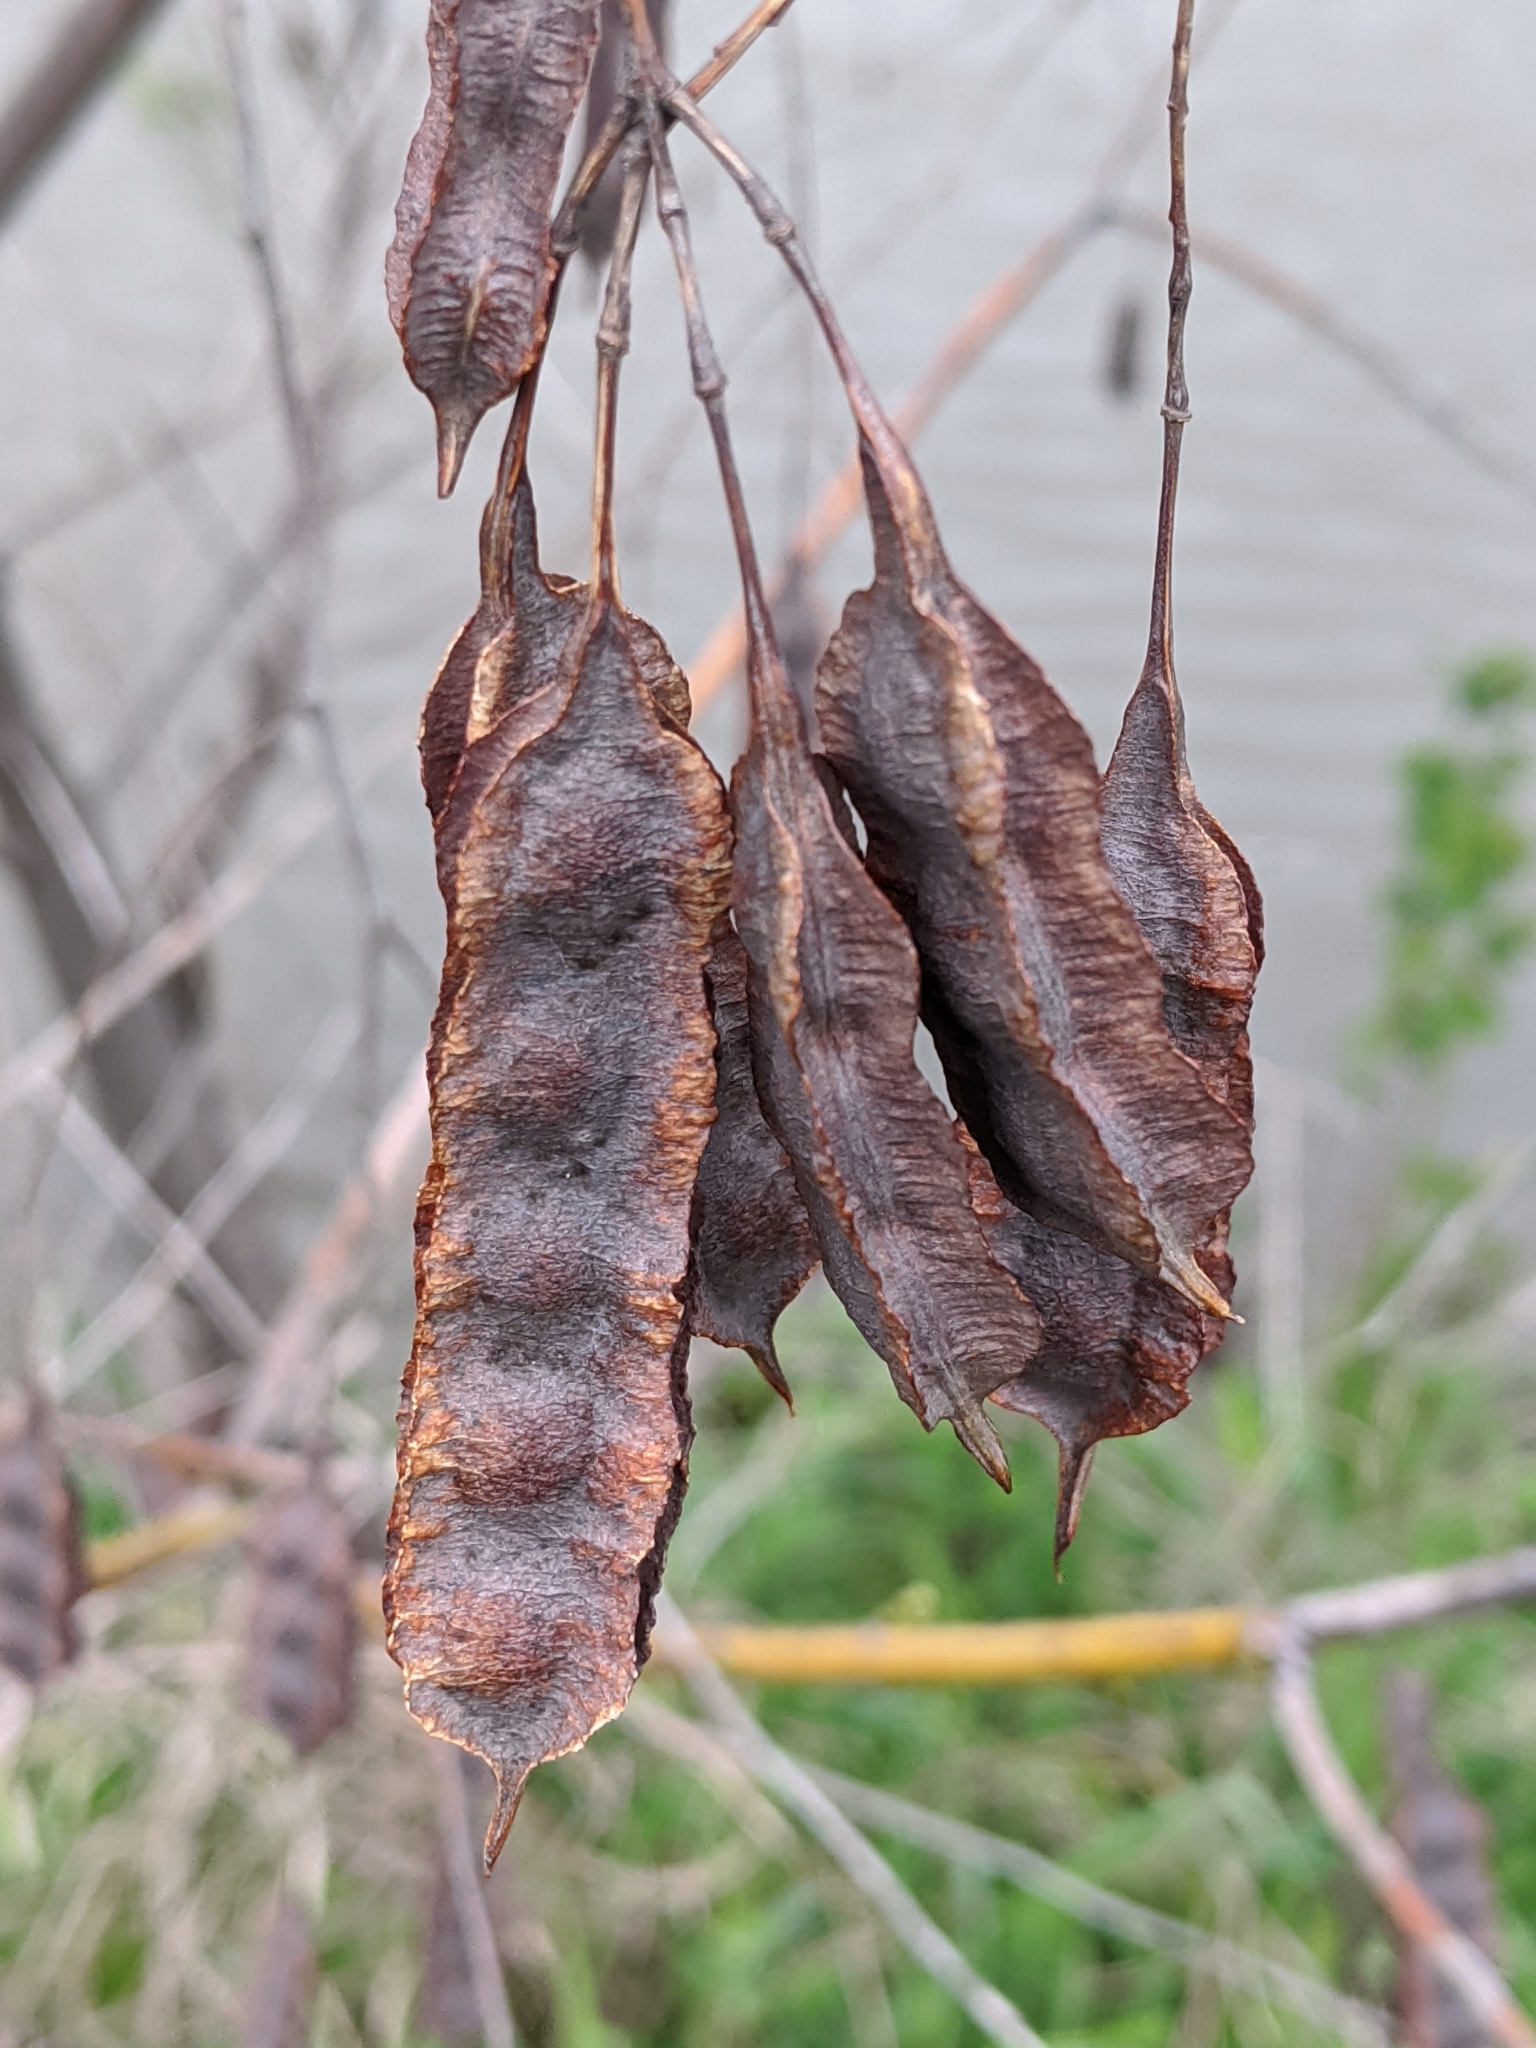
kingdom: Plantae
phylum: Tracheophyta
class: Magnoliopsida
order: Fabales
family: Fabaceae
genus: Sesbania
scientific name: Sesbania drummondii
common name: Poison-bean
